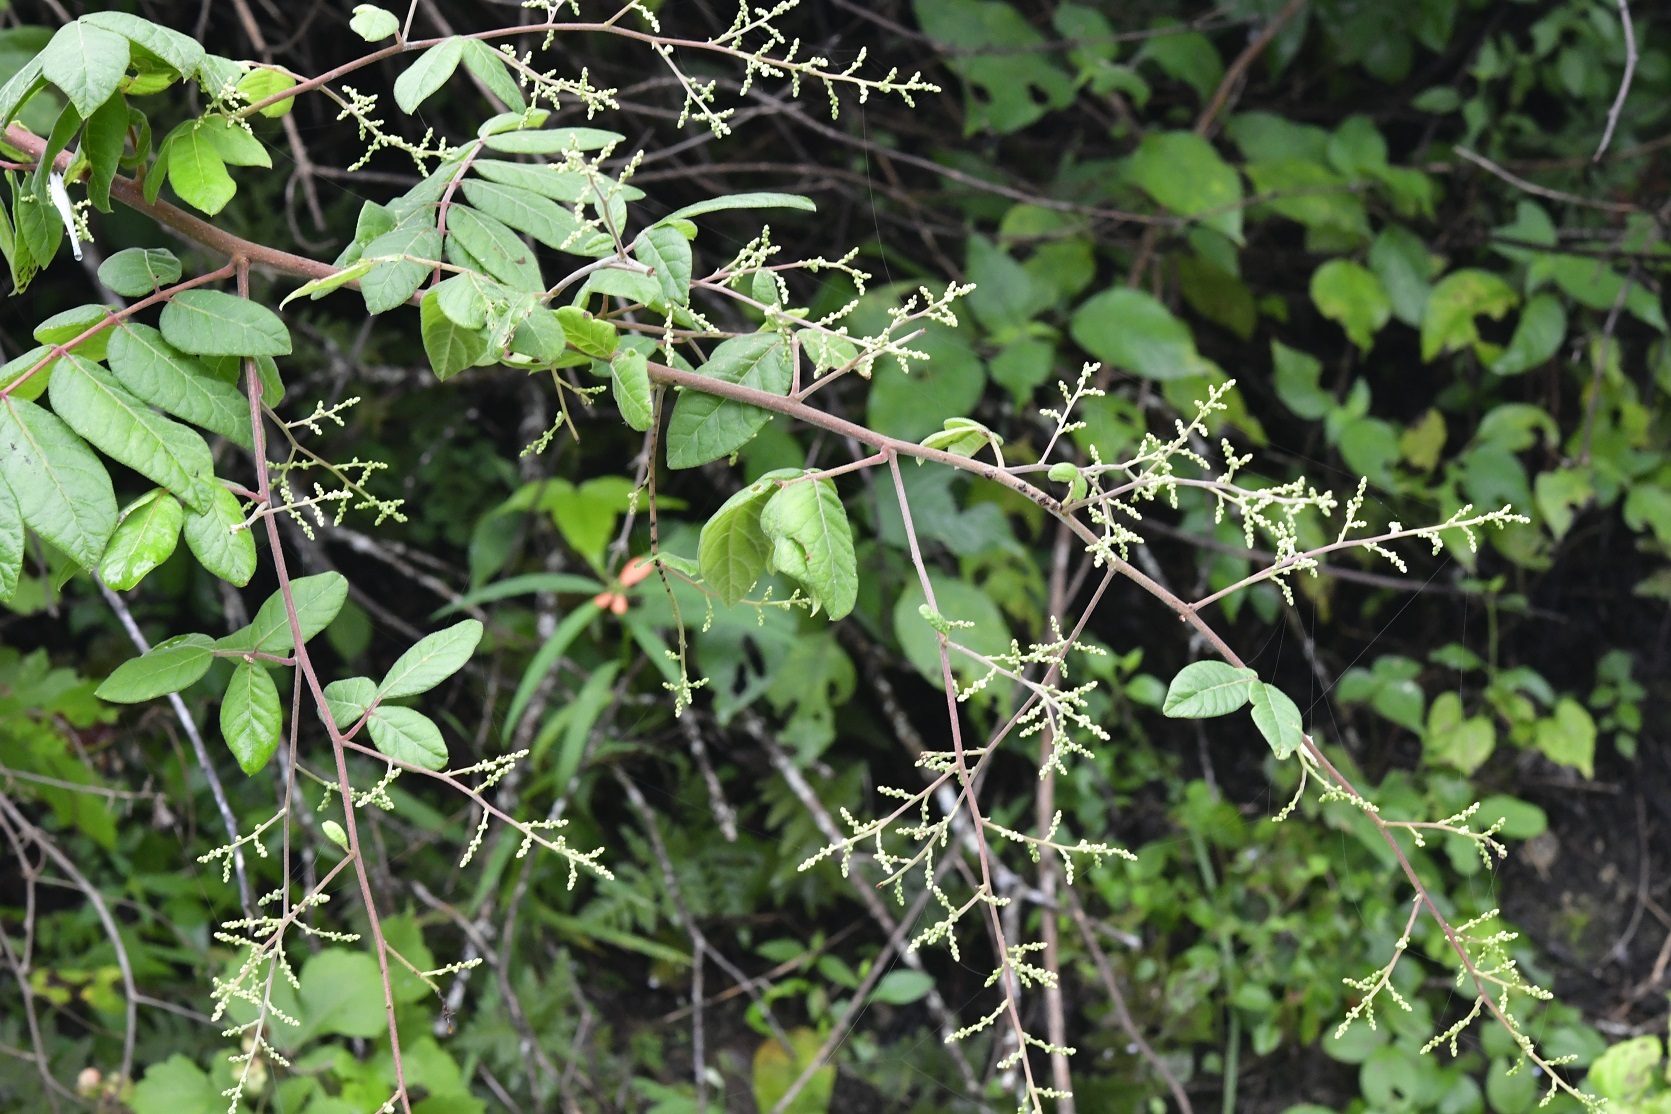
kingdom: Plantae
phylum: Tracheophyta
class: Magnoliopsida
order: Sapindales
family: Anacardiaceae
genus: Rhus
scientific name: Rhus terebinthifolia
